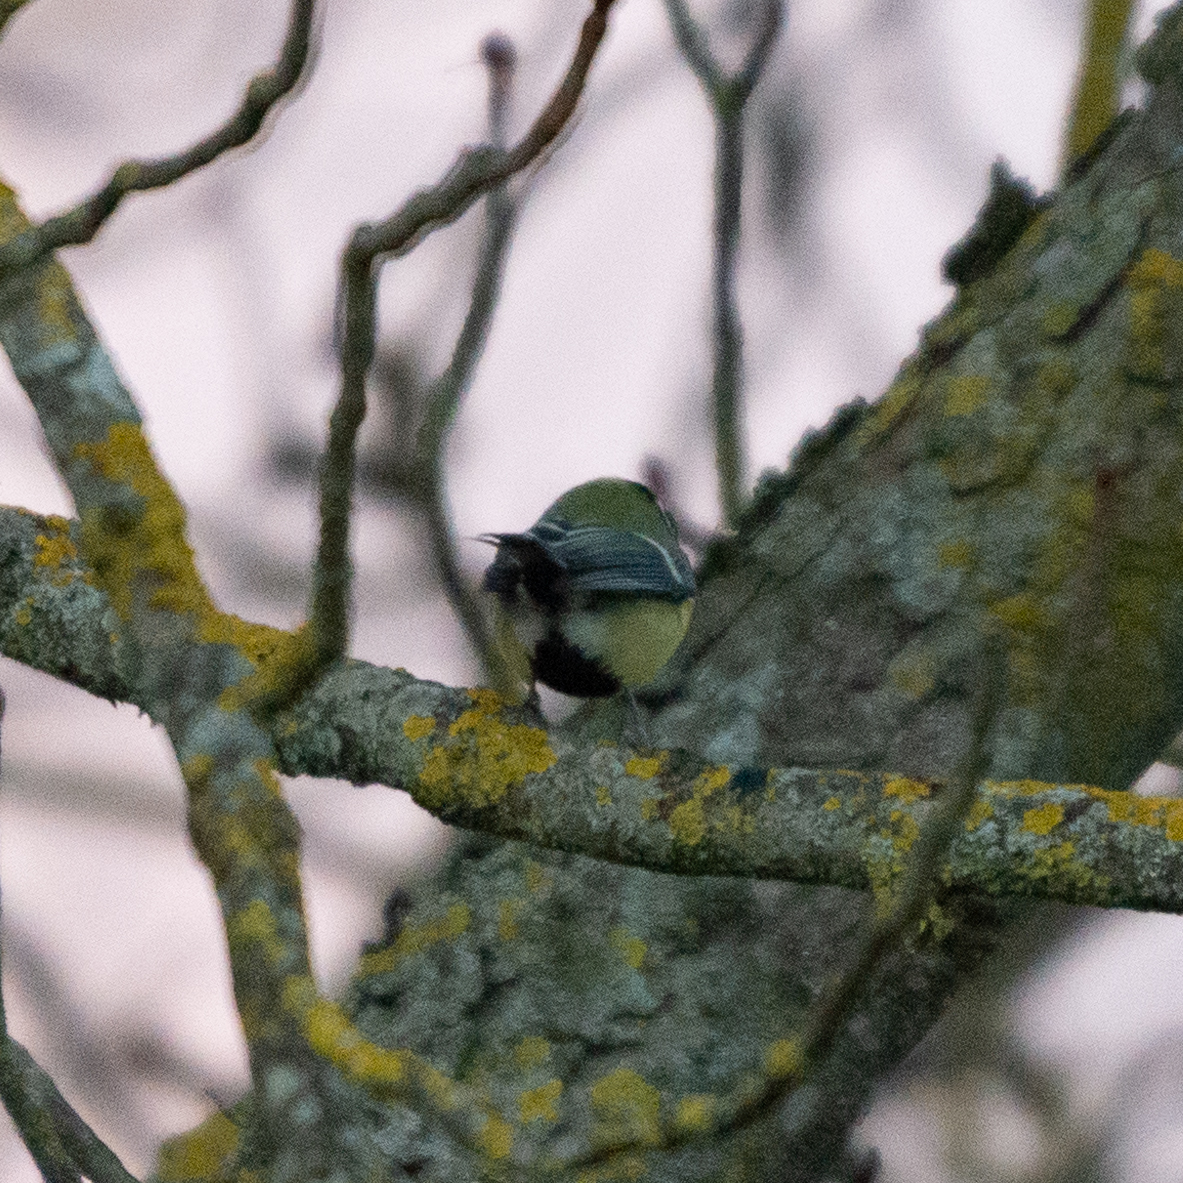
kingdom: Animalia
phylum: Chordata
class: Aves
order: Passeriformes
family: Paridae
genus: Parus
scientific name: Parus major
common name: Great tit
